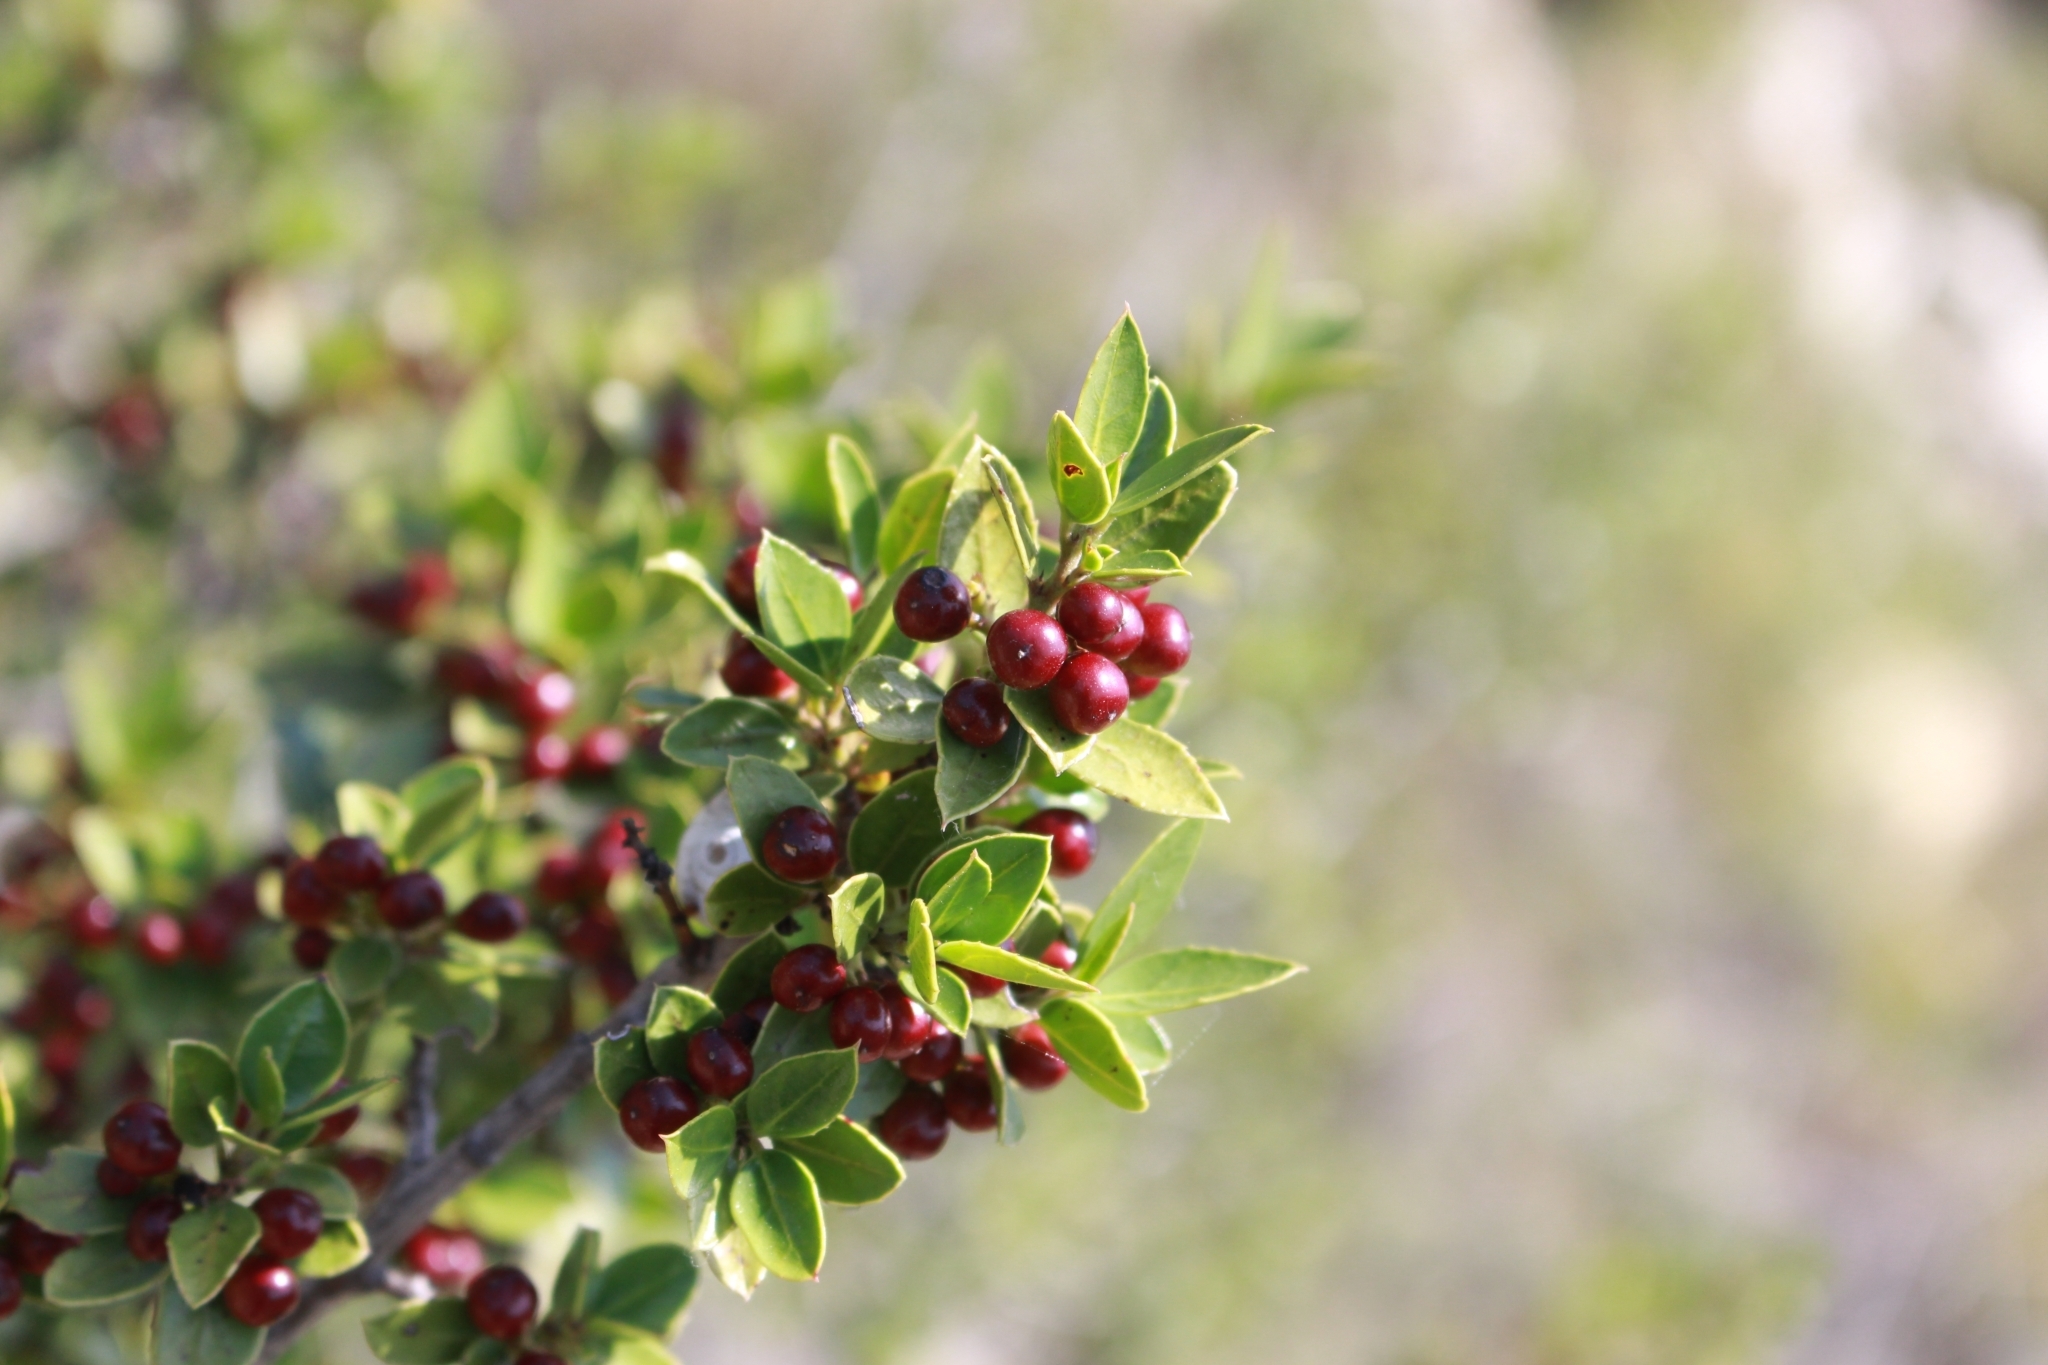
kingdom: Plantae
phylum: Tracheophyta
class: Magnoliopsida
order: Rosales
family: Rhamnaceae
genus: Rhamnus
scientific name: Rhamnus alaternus
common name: Mediterranean buckthorn
